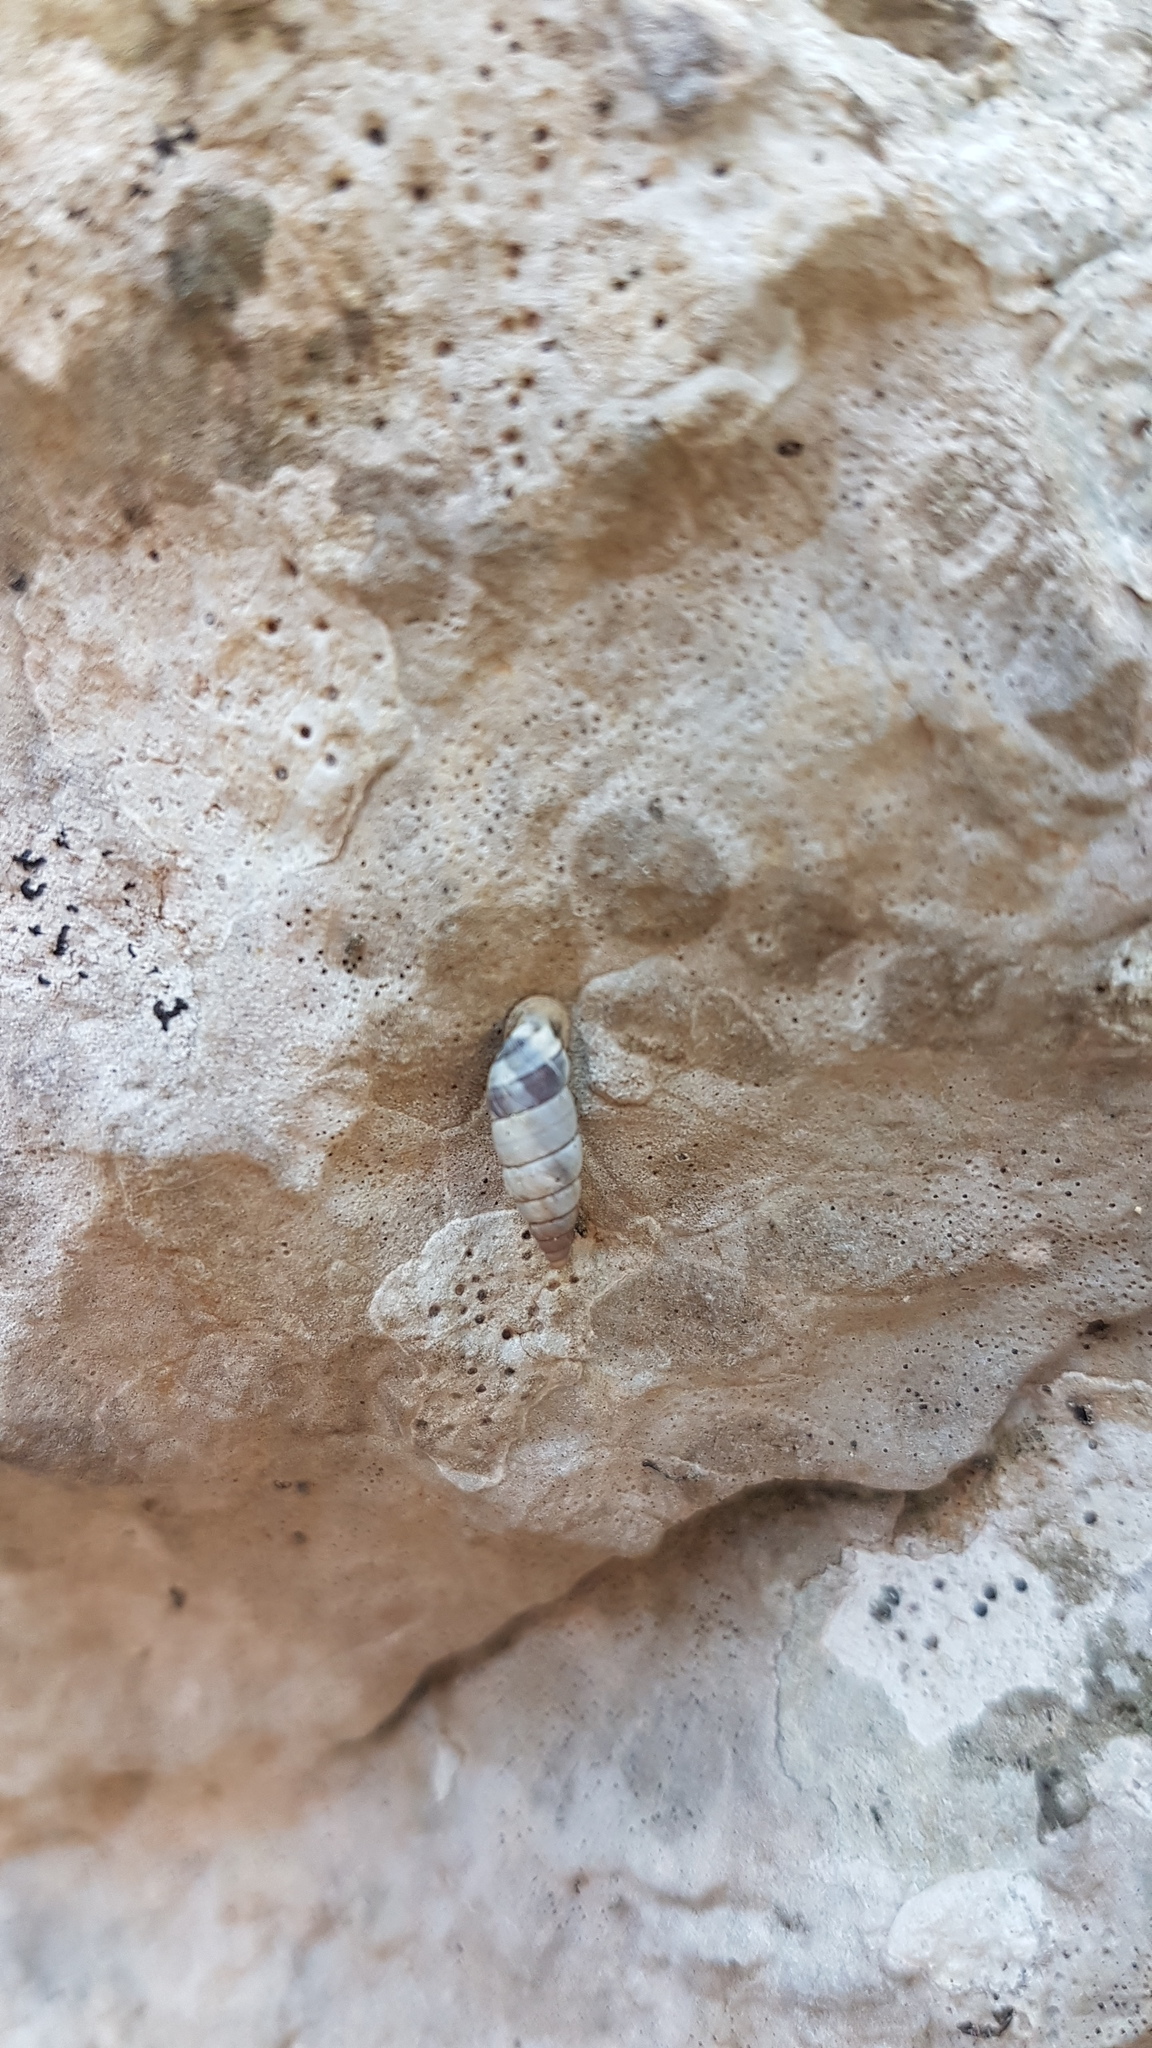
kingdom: Animalia
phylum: Mollusca
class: Gastropoda
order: Stylommatophora
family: Chondrinidae
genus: Solatopupa
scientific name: Solatopupa similis
